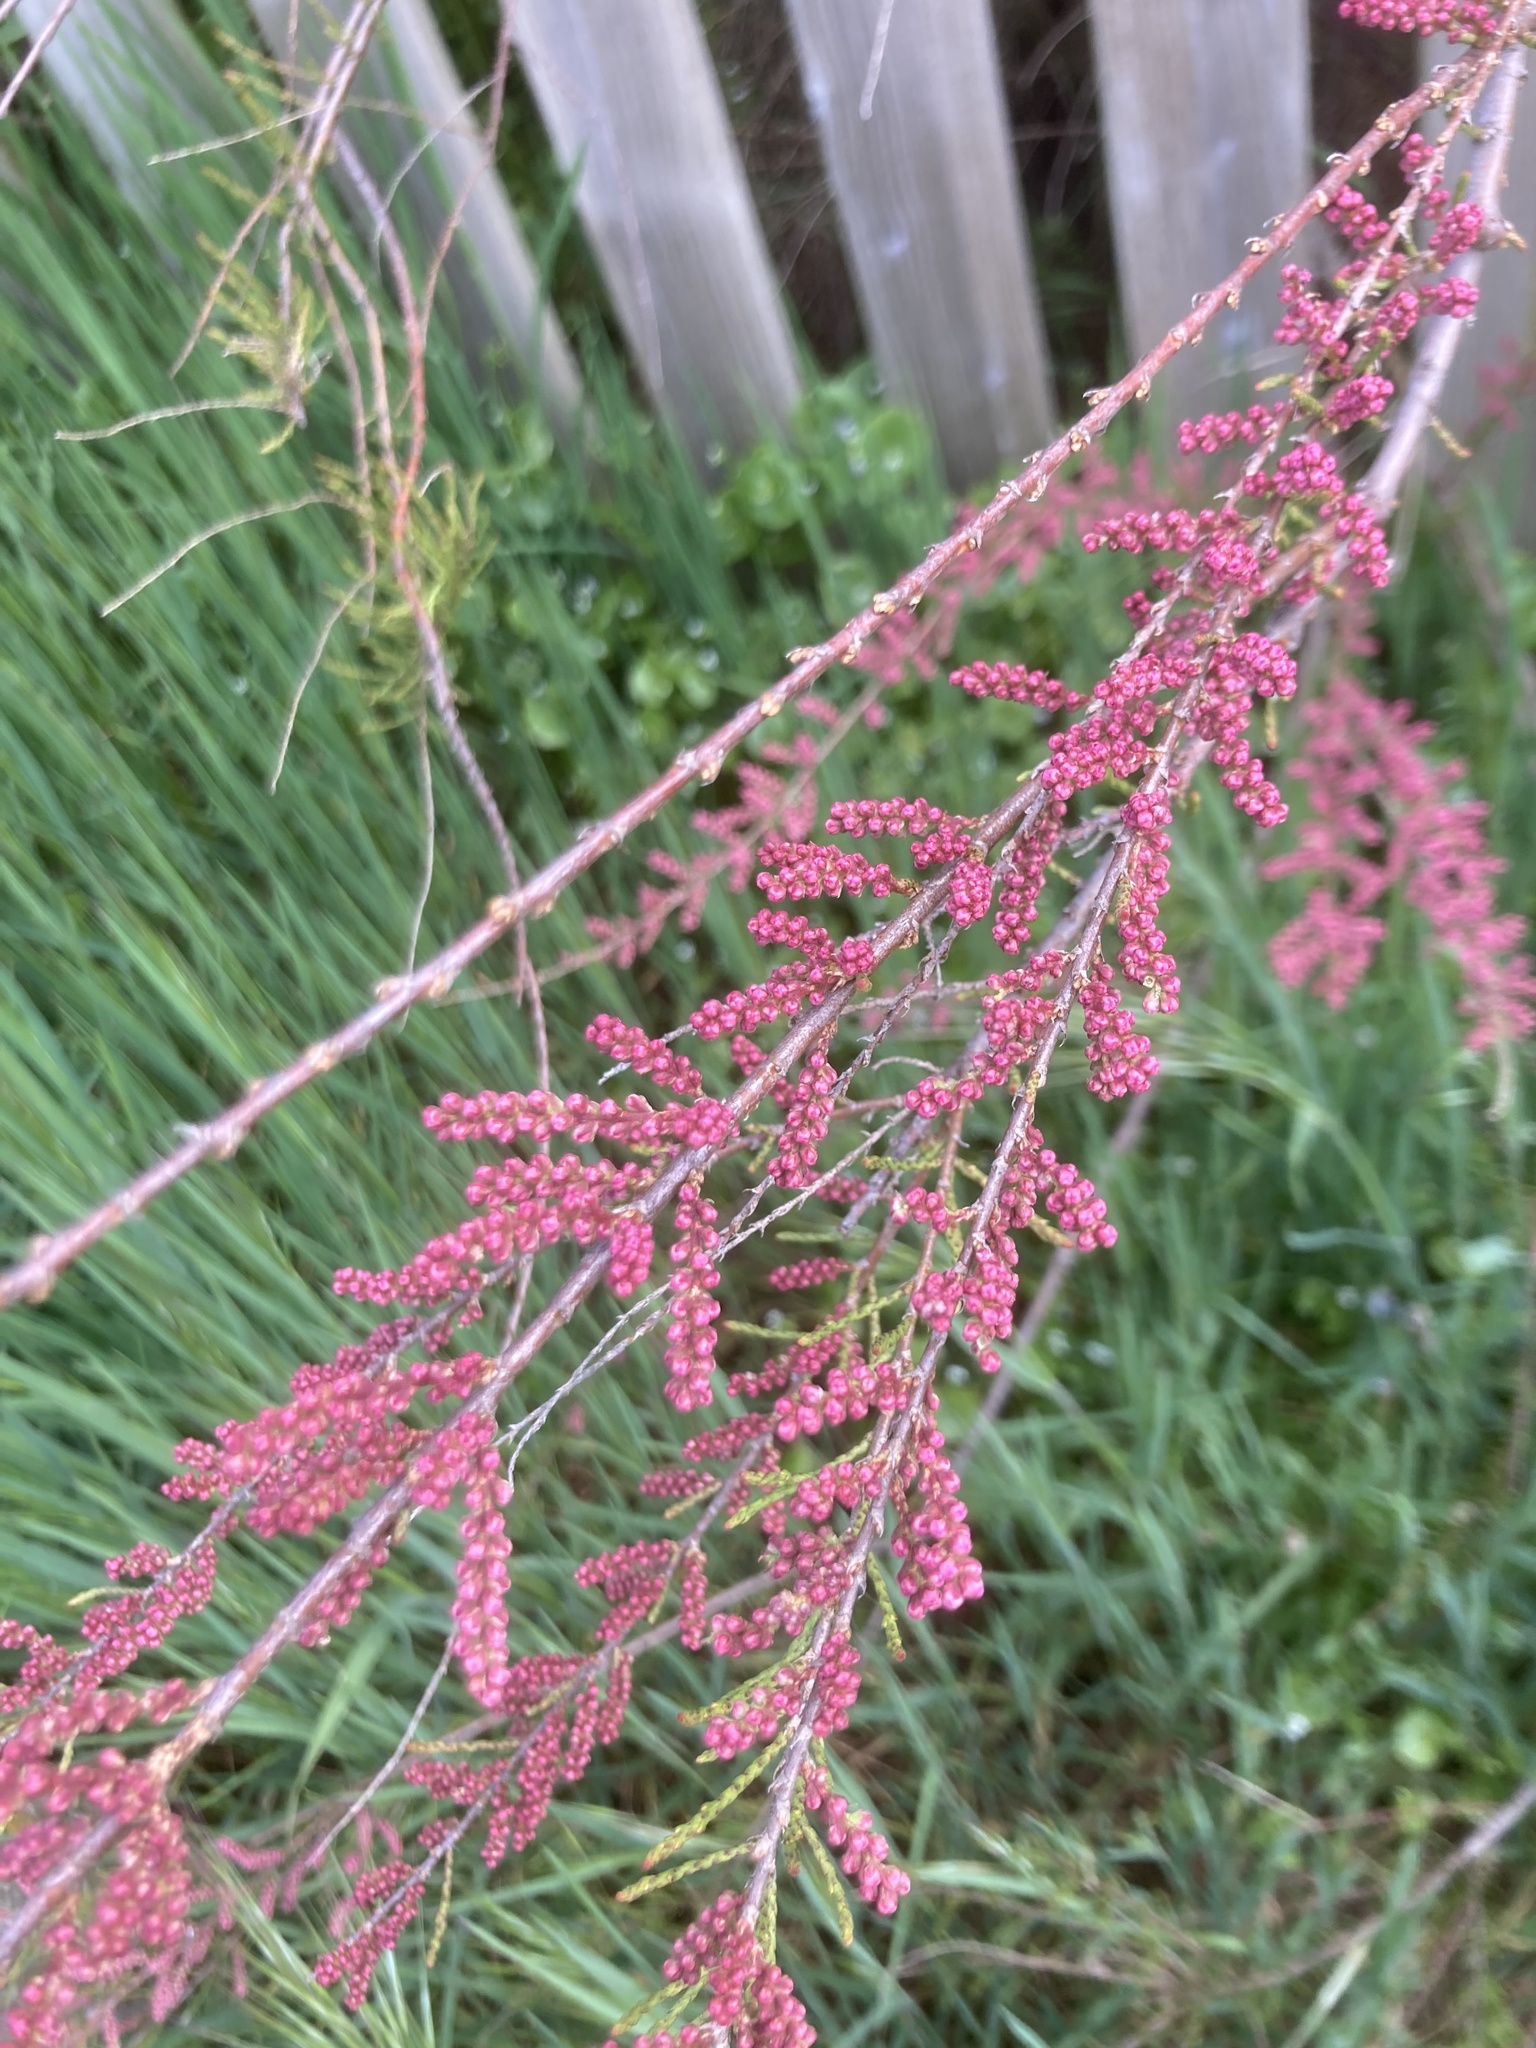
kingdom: Plantae
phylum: Tracheophyta
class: Magnoliopsida
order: Caryophyllales
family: Tamaricaceae
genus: Tamarix
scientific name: Tamarix gallica
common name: Tamarisk
